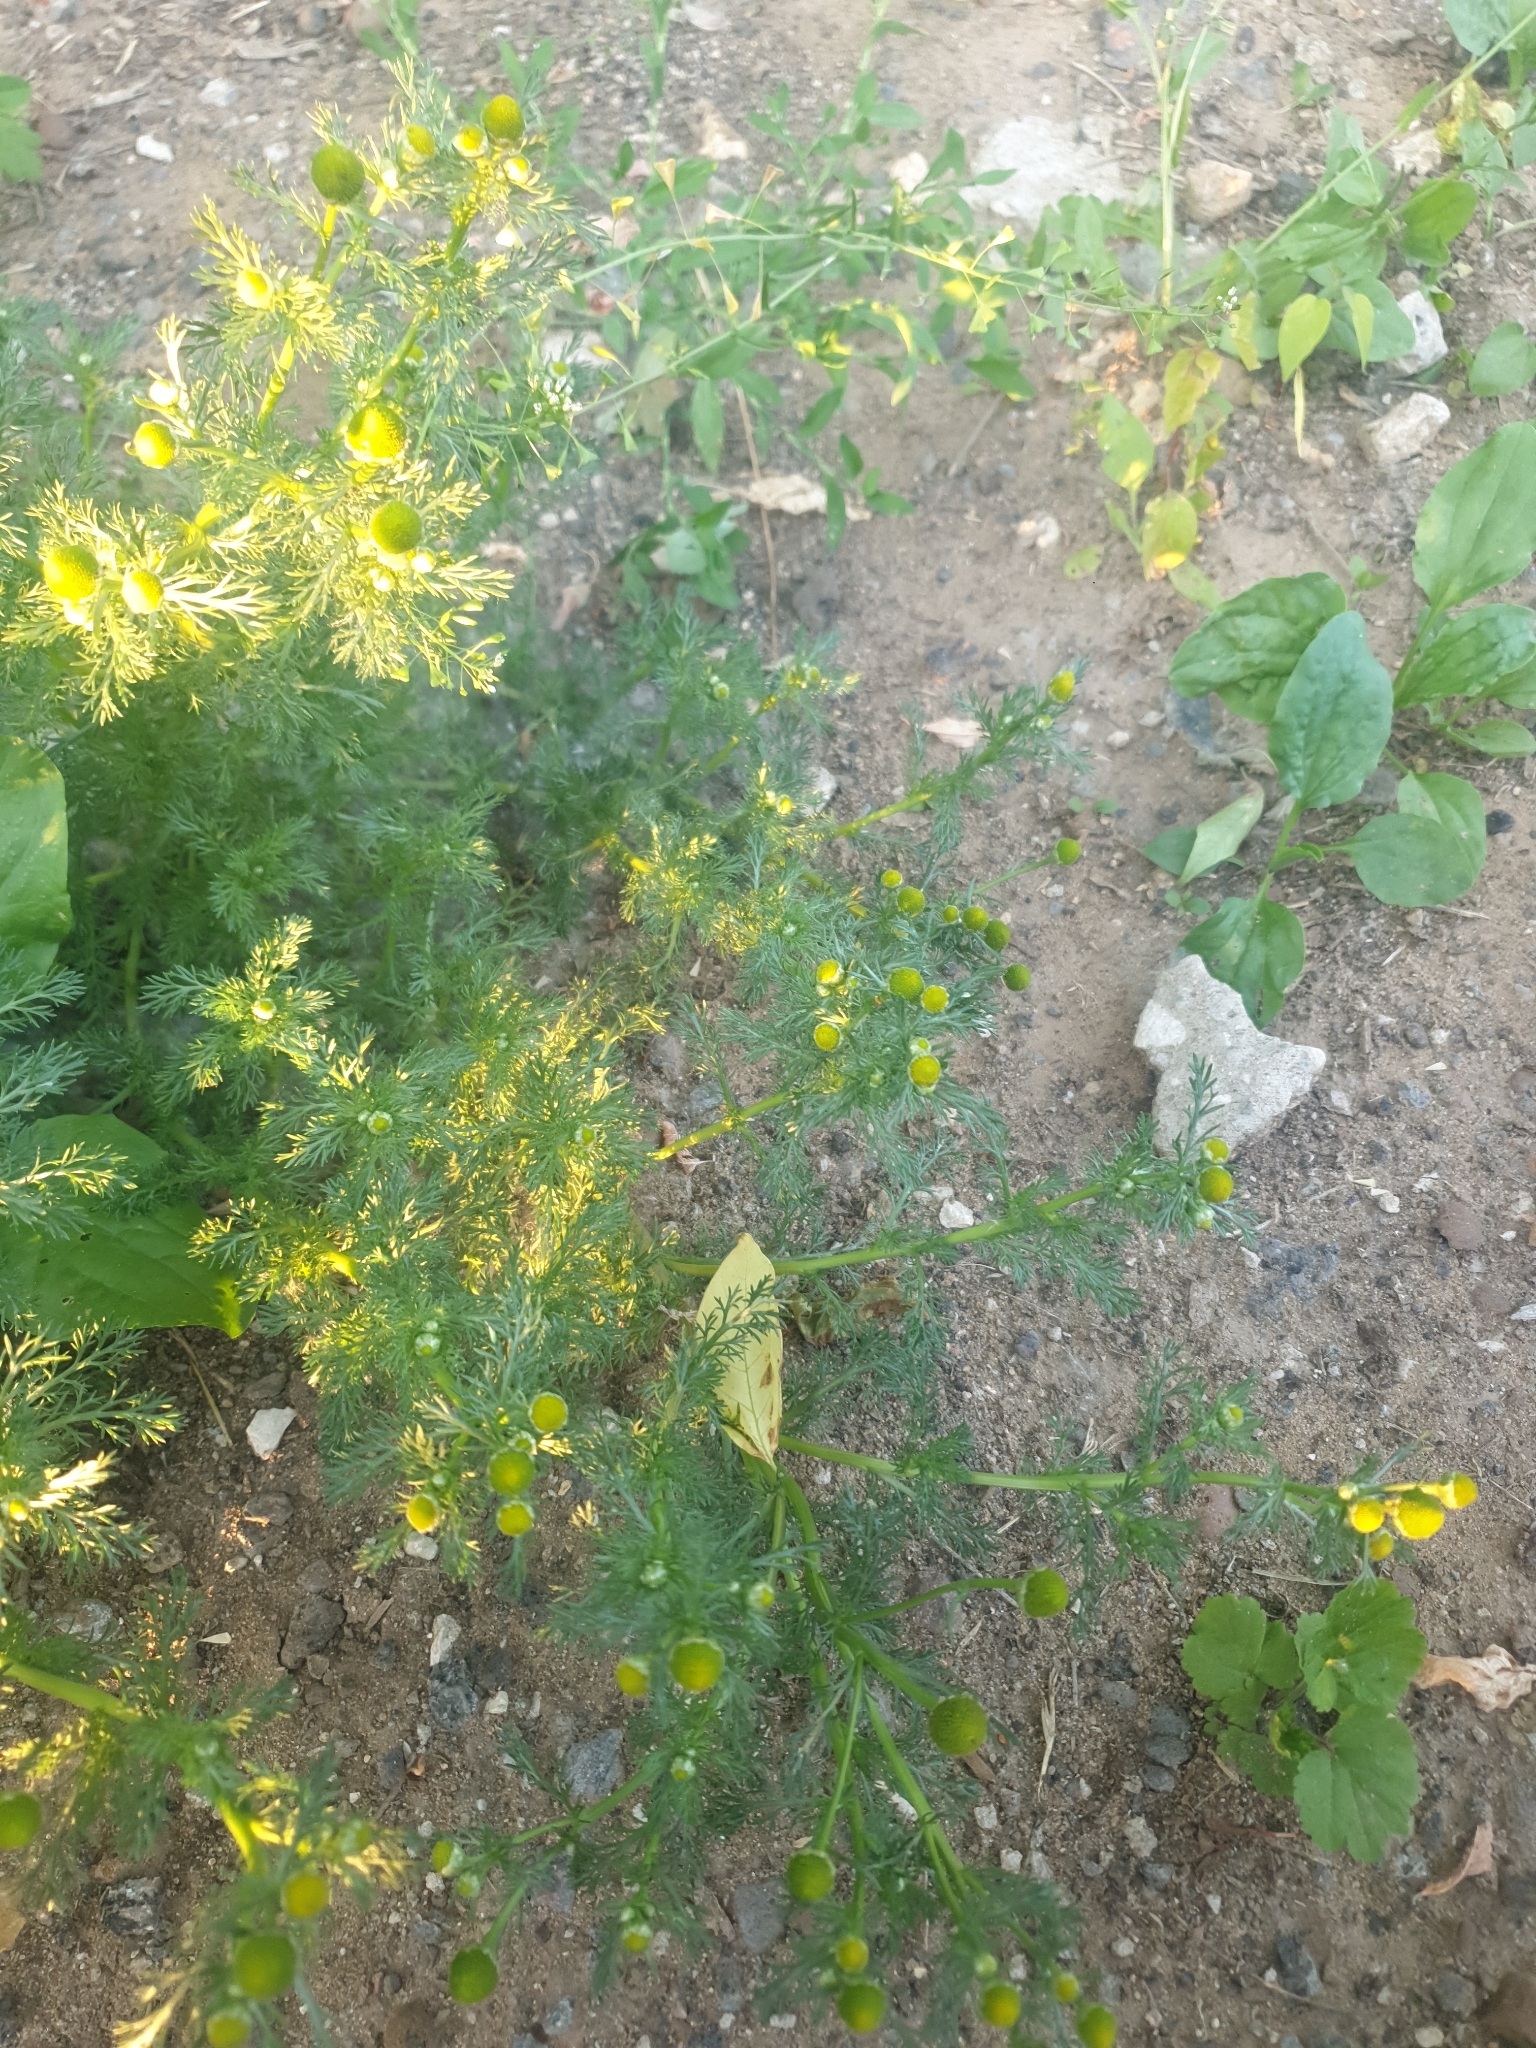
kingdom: Plantae
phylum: Tracheophyta
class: Magnoliopsida
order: Asterales
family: Asteraceae
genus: Matricaria
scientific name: Matricaria discoidea
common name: Disc mayweed
